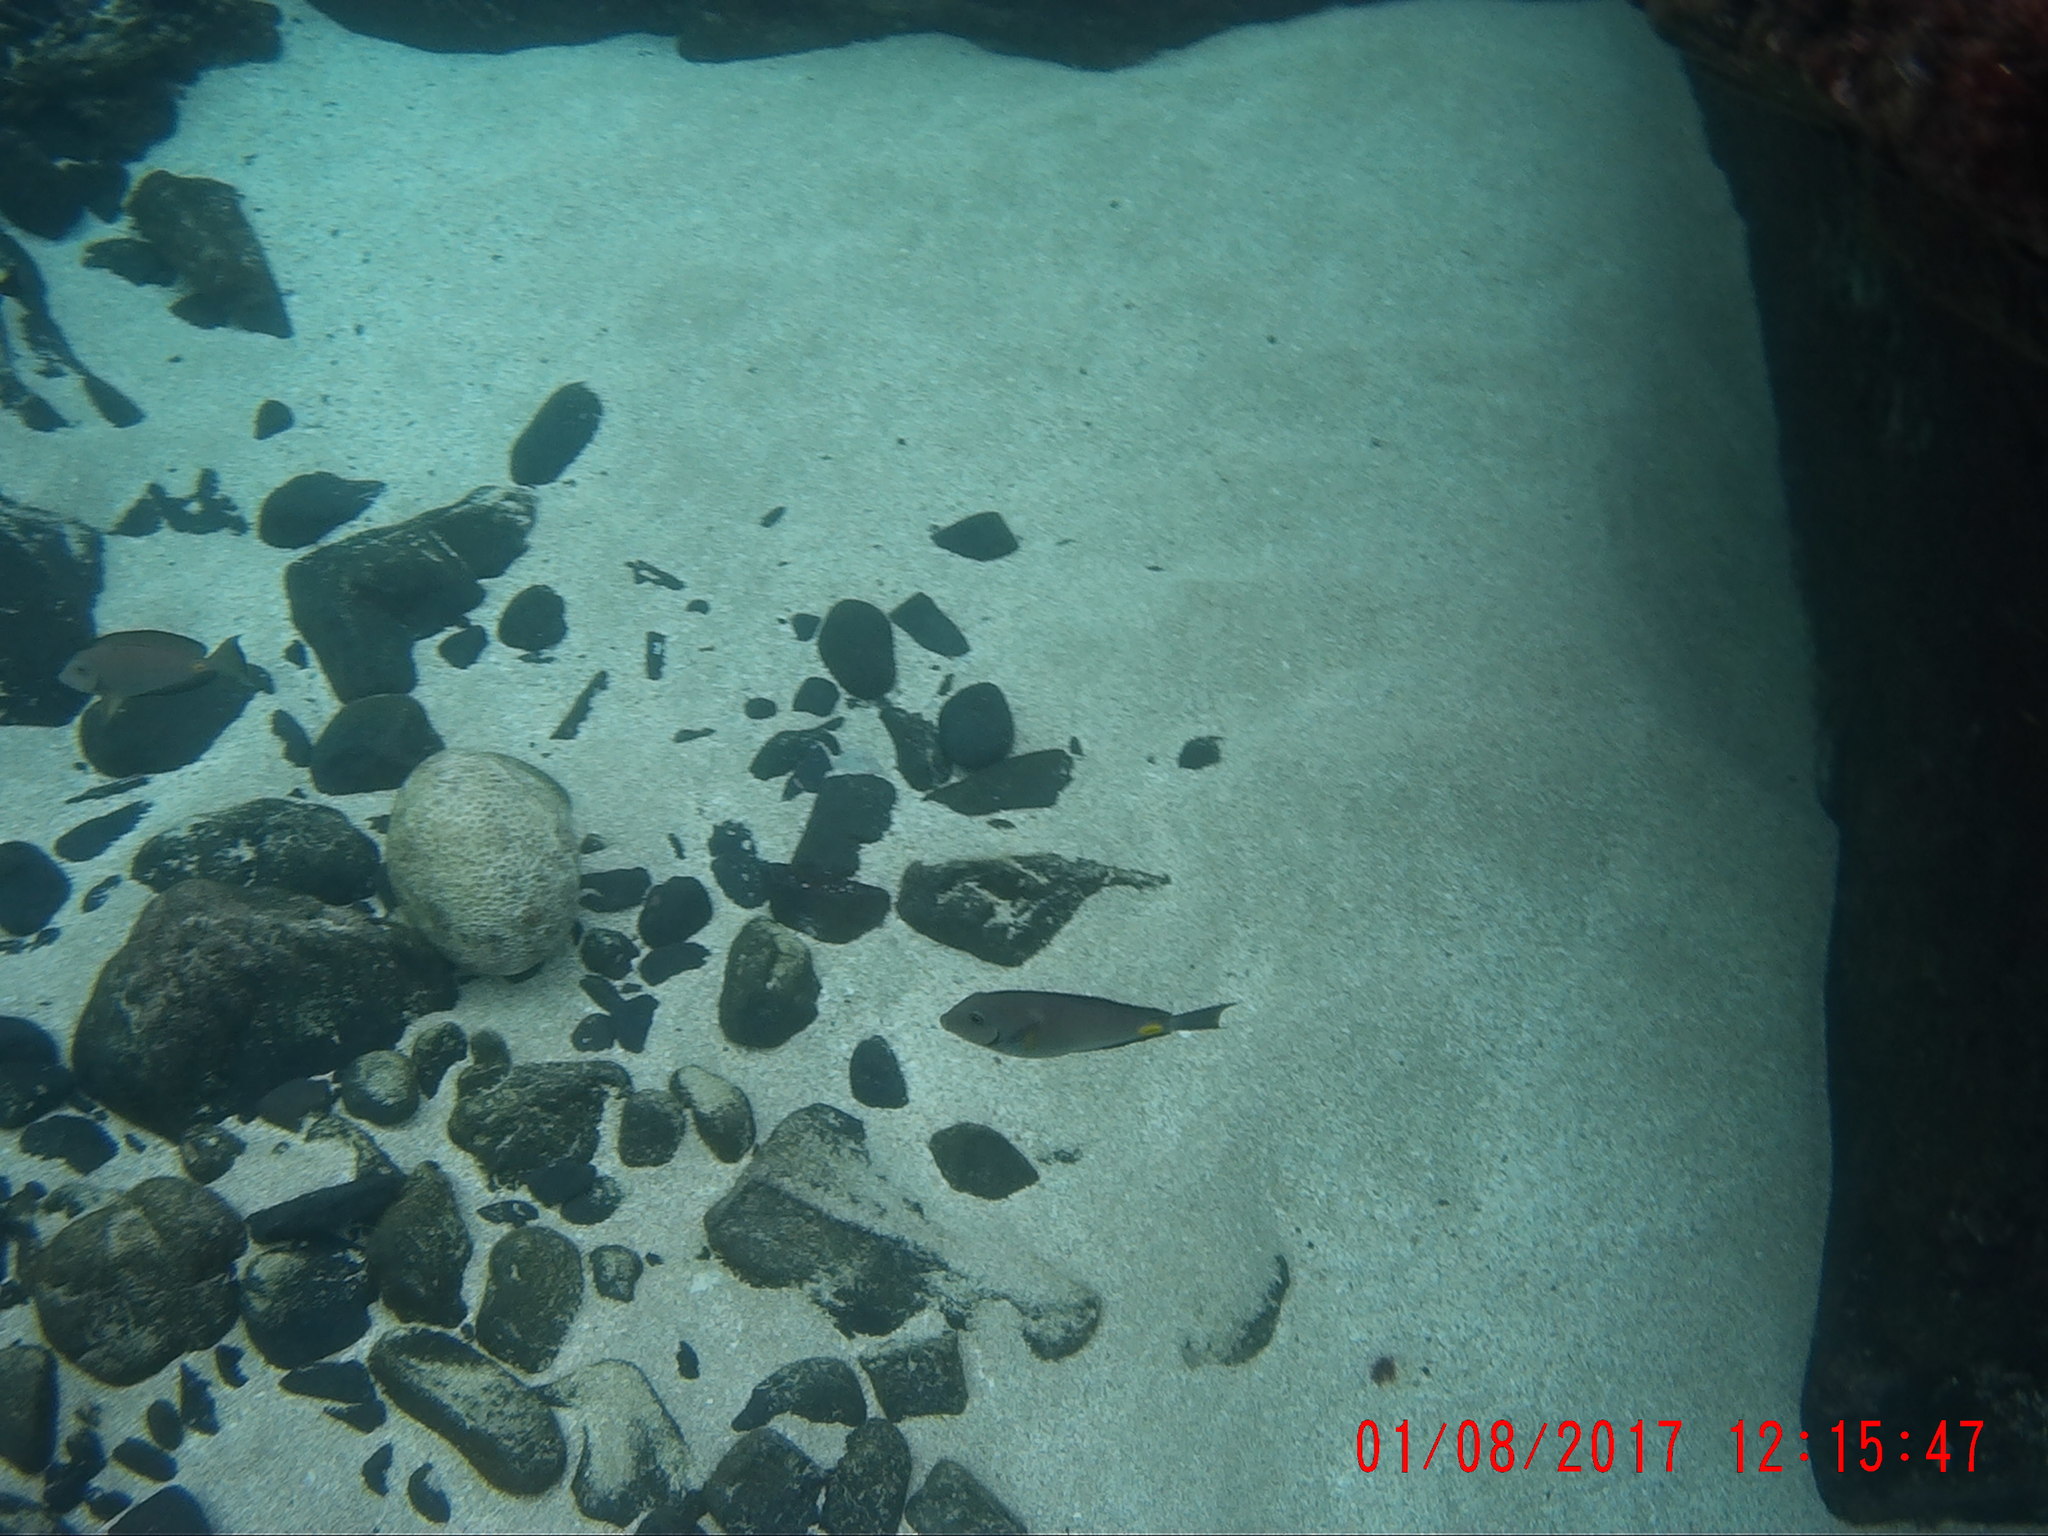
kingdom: Animalia
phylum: Chordata
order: Perciformes
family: Acanthuridae
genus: Acanthurus
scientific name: Acanthurus monroviae
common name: Monrovia surgeonfish
